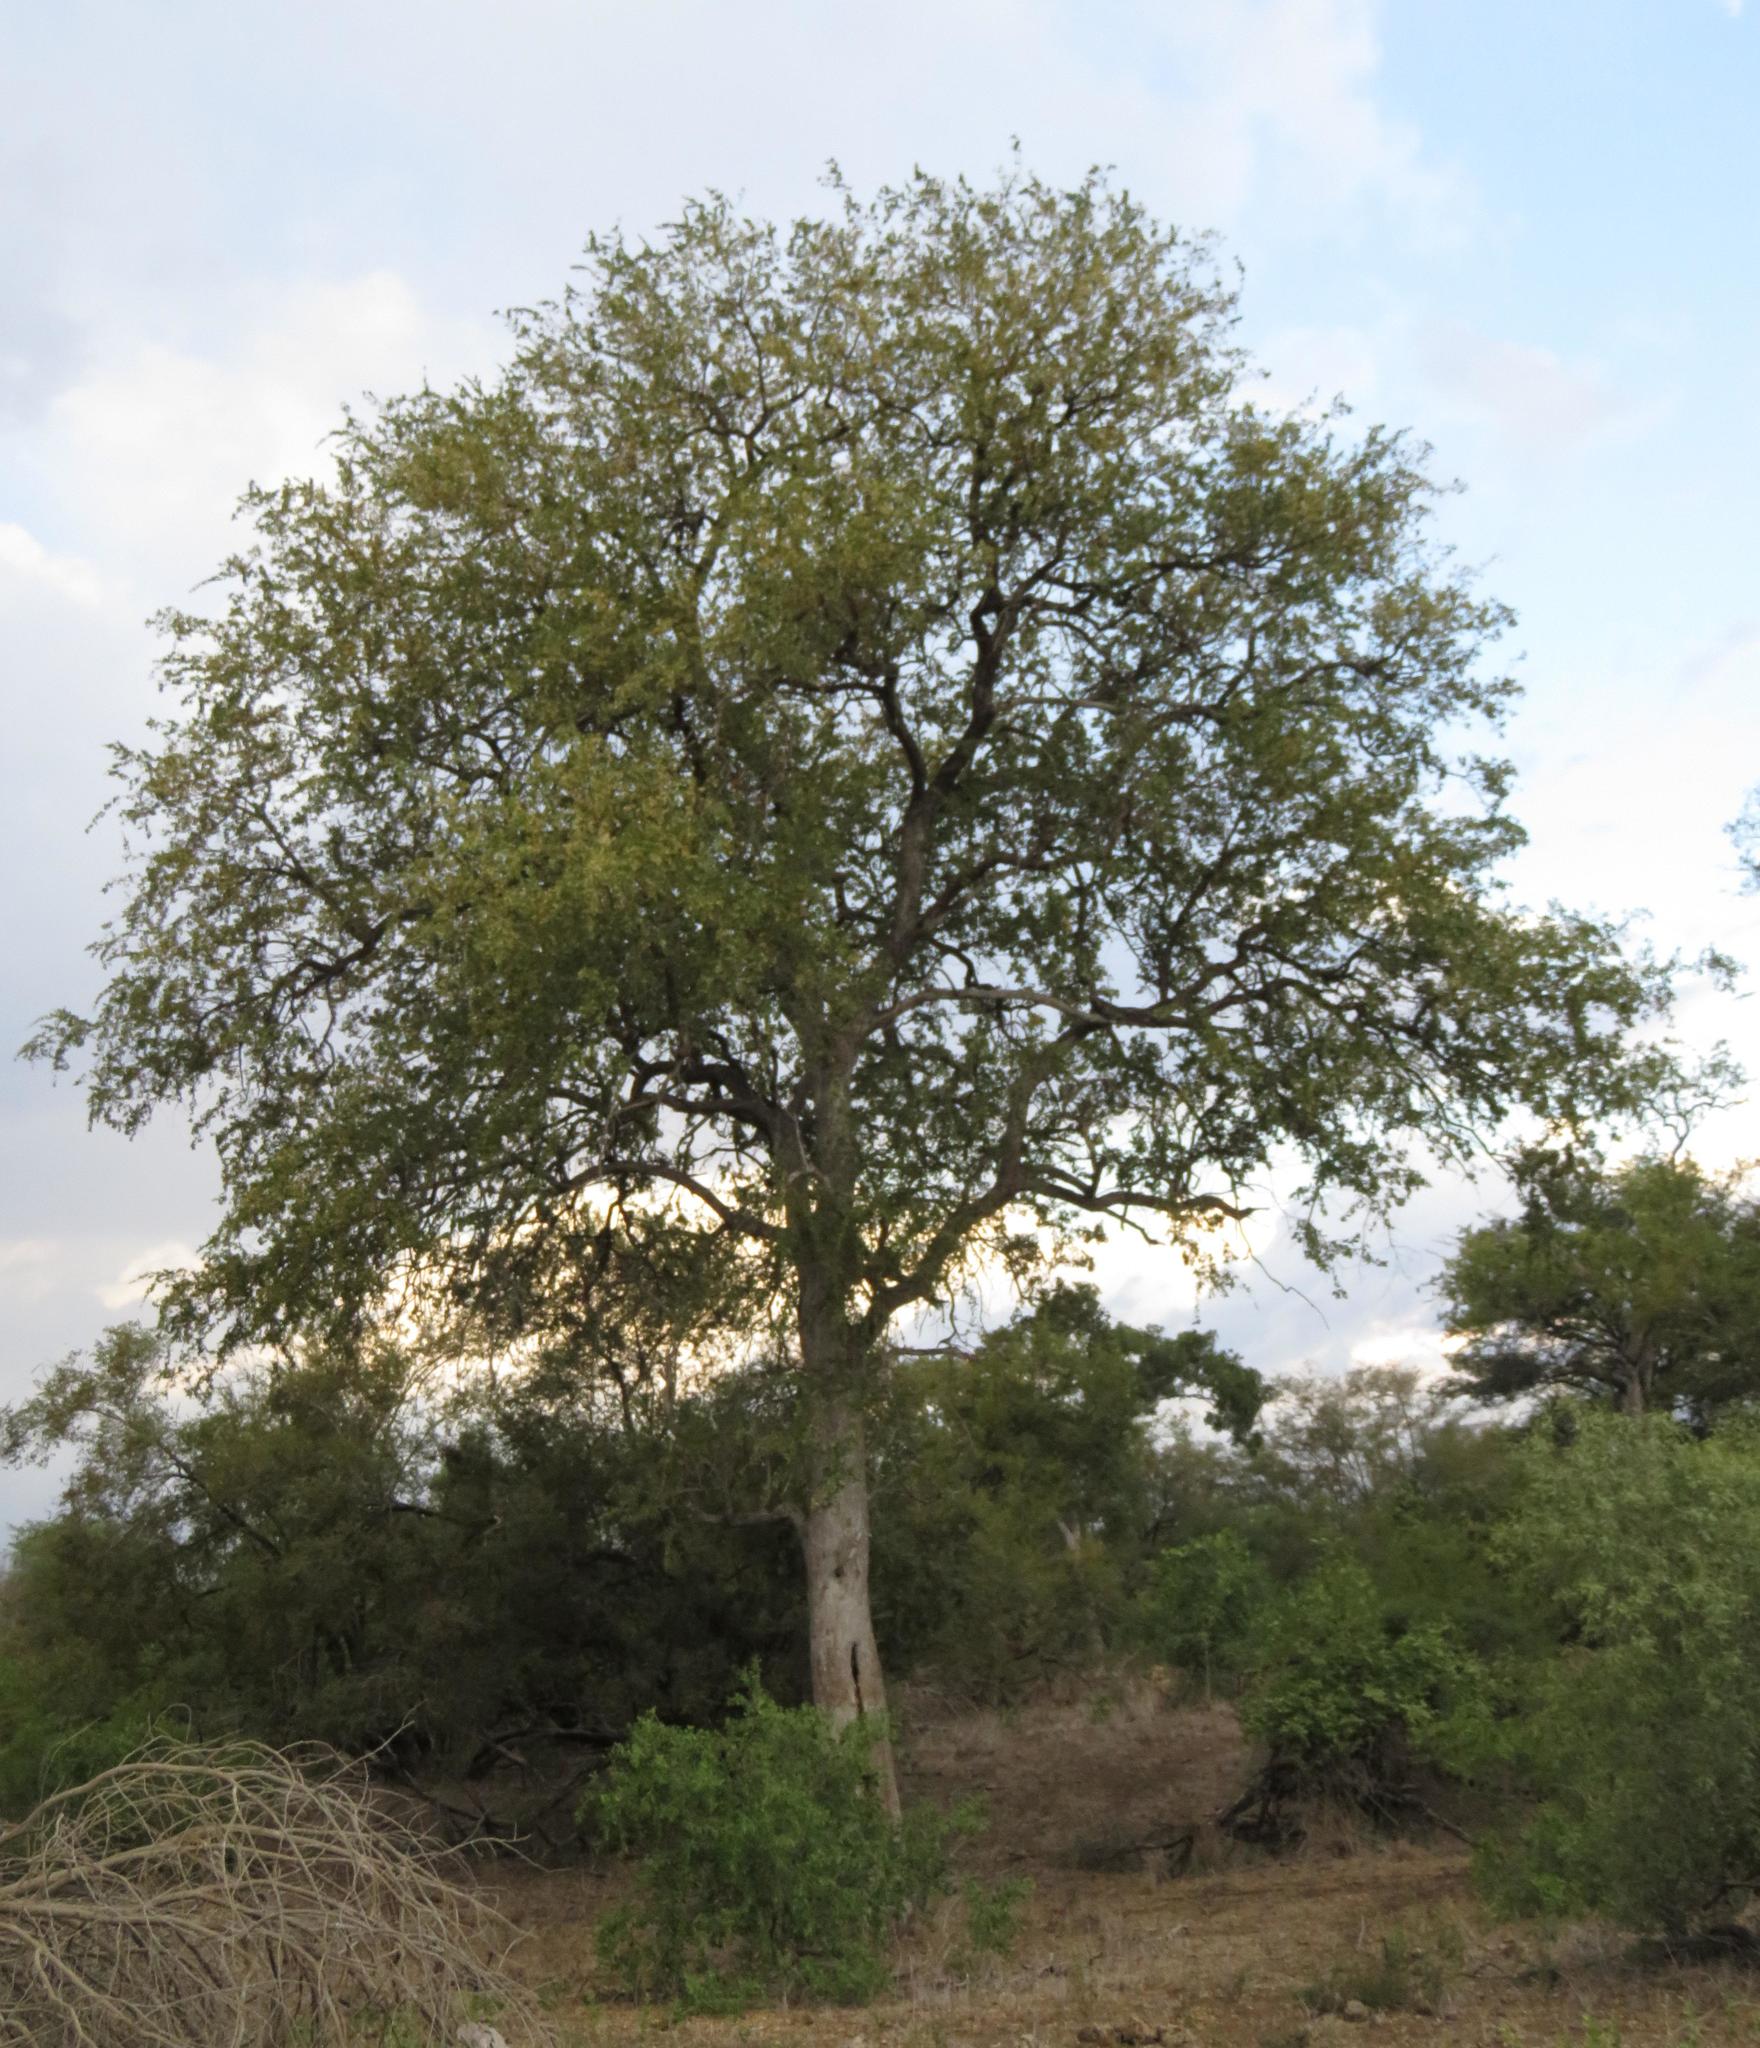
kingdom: Plantae
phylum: Tracheophyta
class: Magnoliopsida
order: Myrtales
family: Combretaceae
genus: Combretum
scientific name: Combretum imberbe
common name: Leadwood
